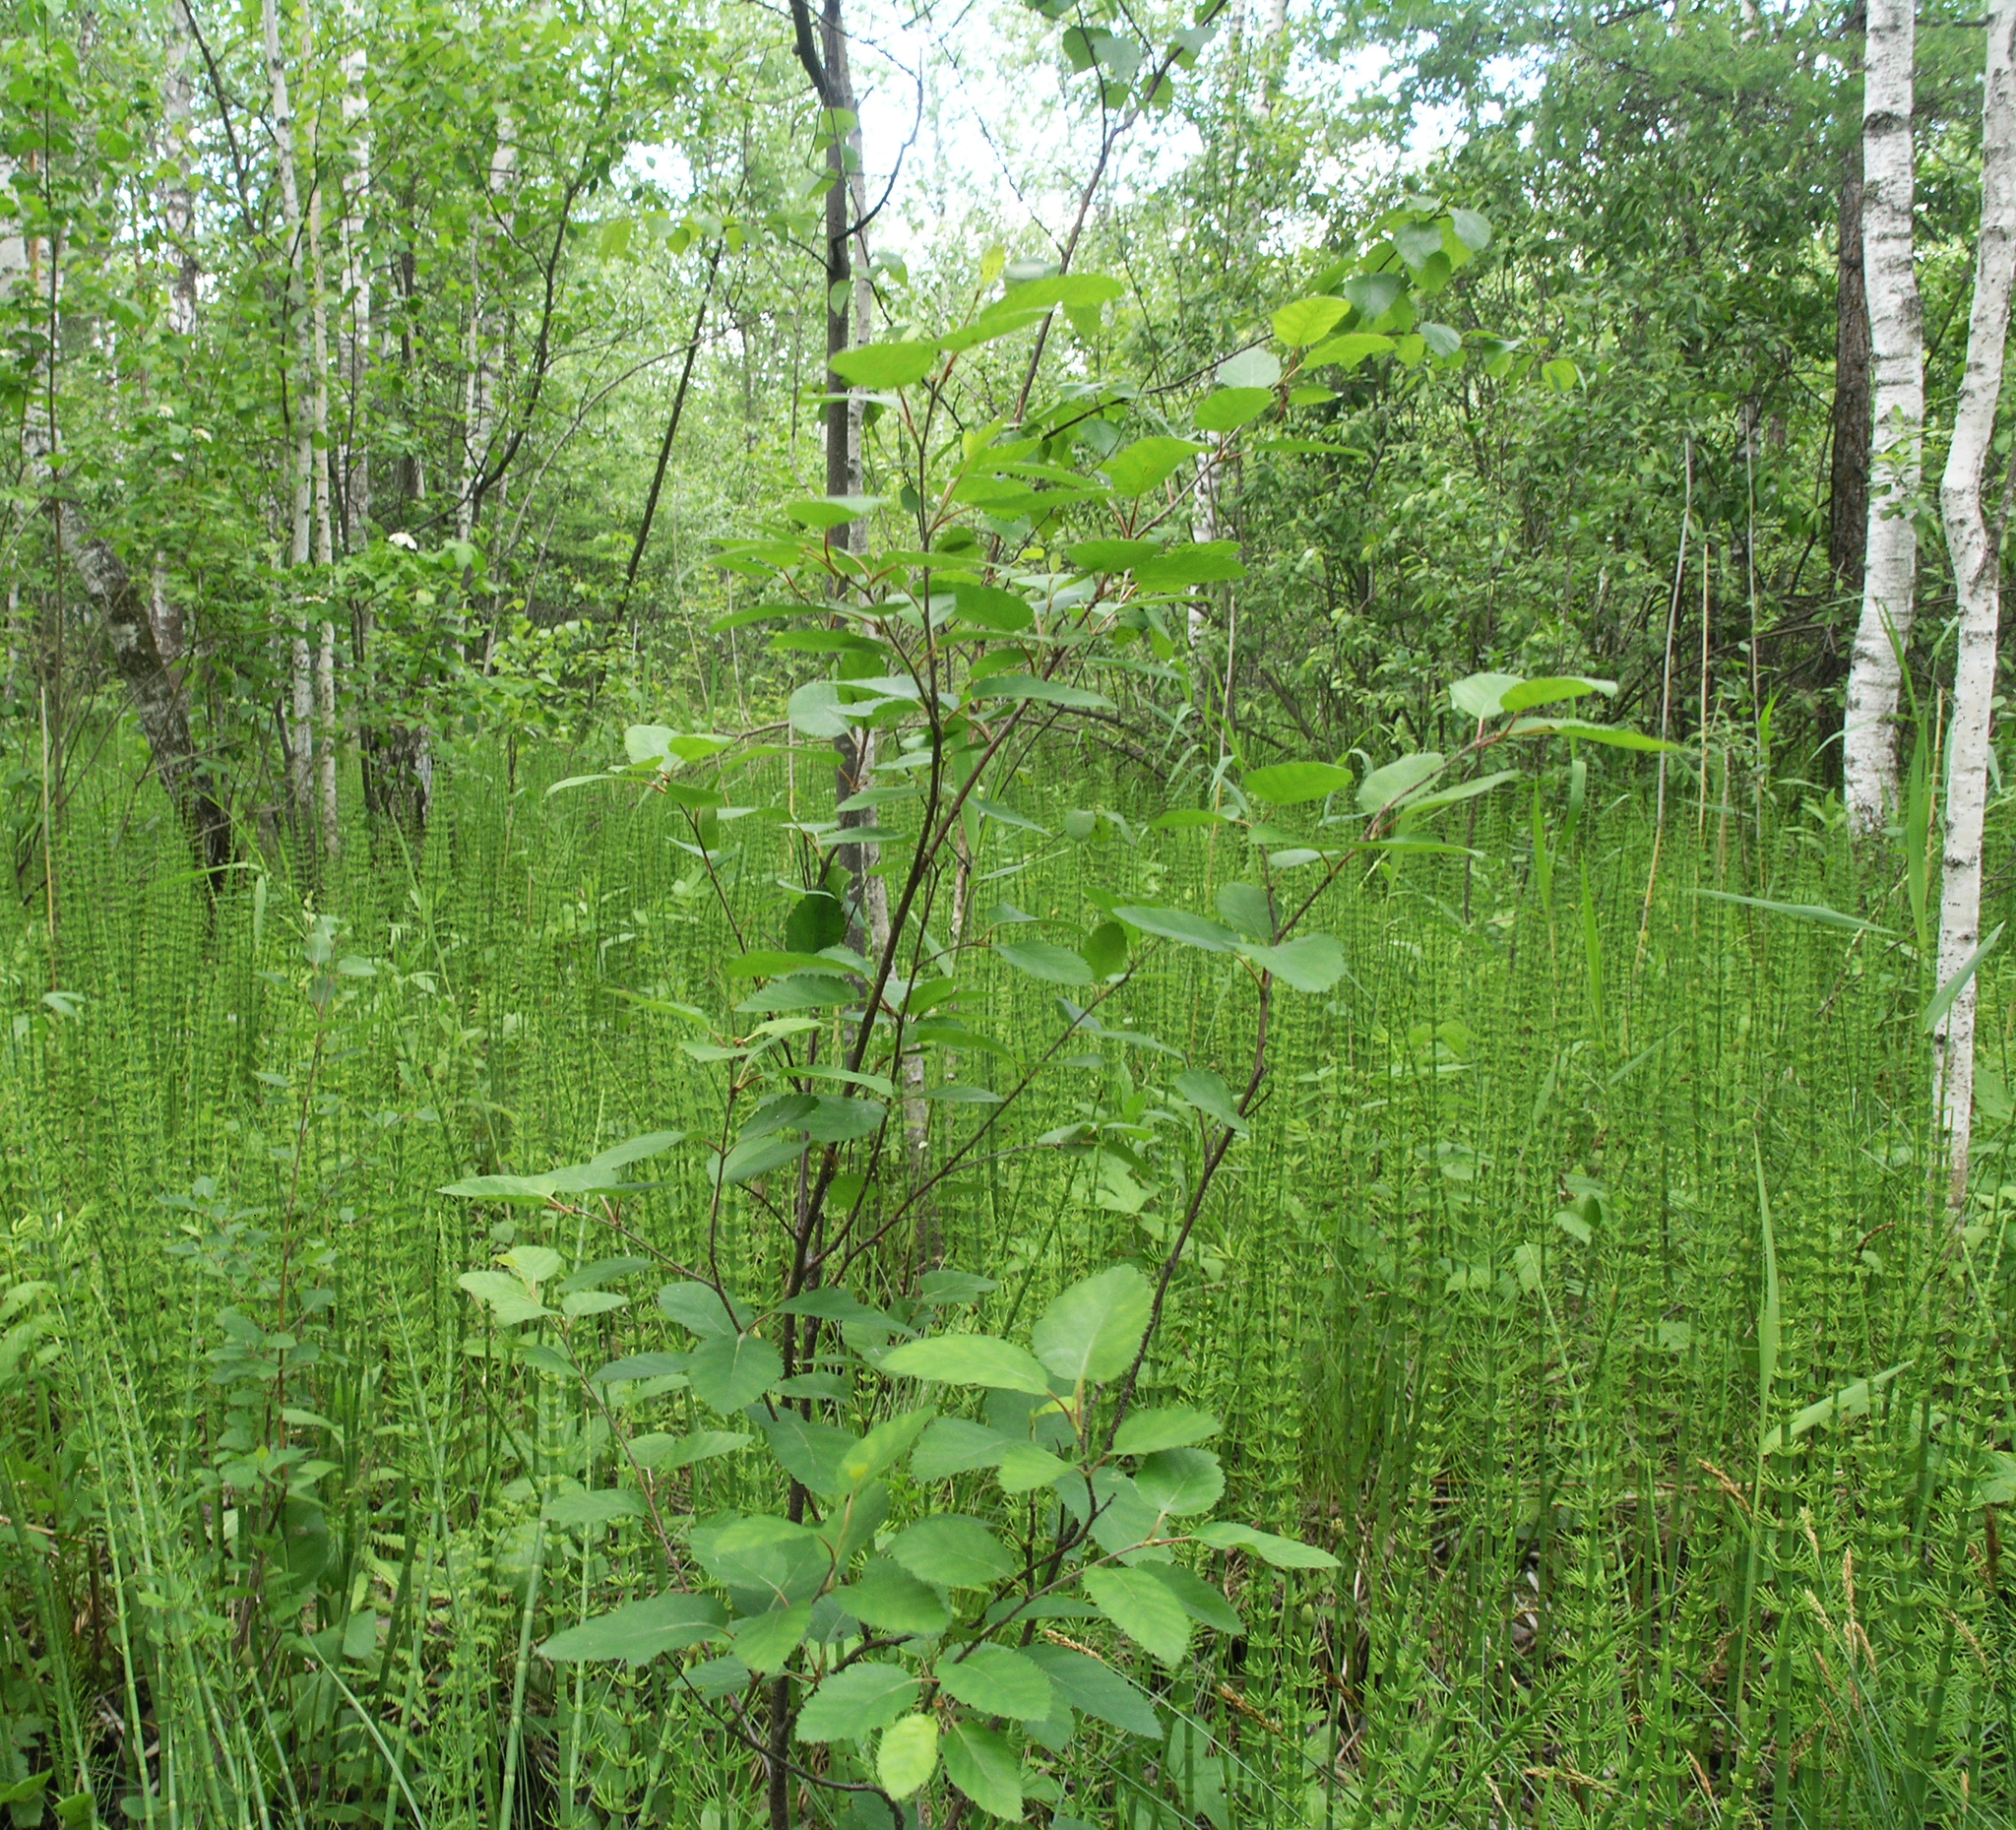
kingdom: Plantae
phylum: Tracheophyta
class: Magnoliopsida
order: Fagales
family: Betulaceae
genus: Betula
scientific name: Betula fruticosa
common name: Japanese bog birch
